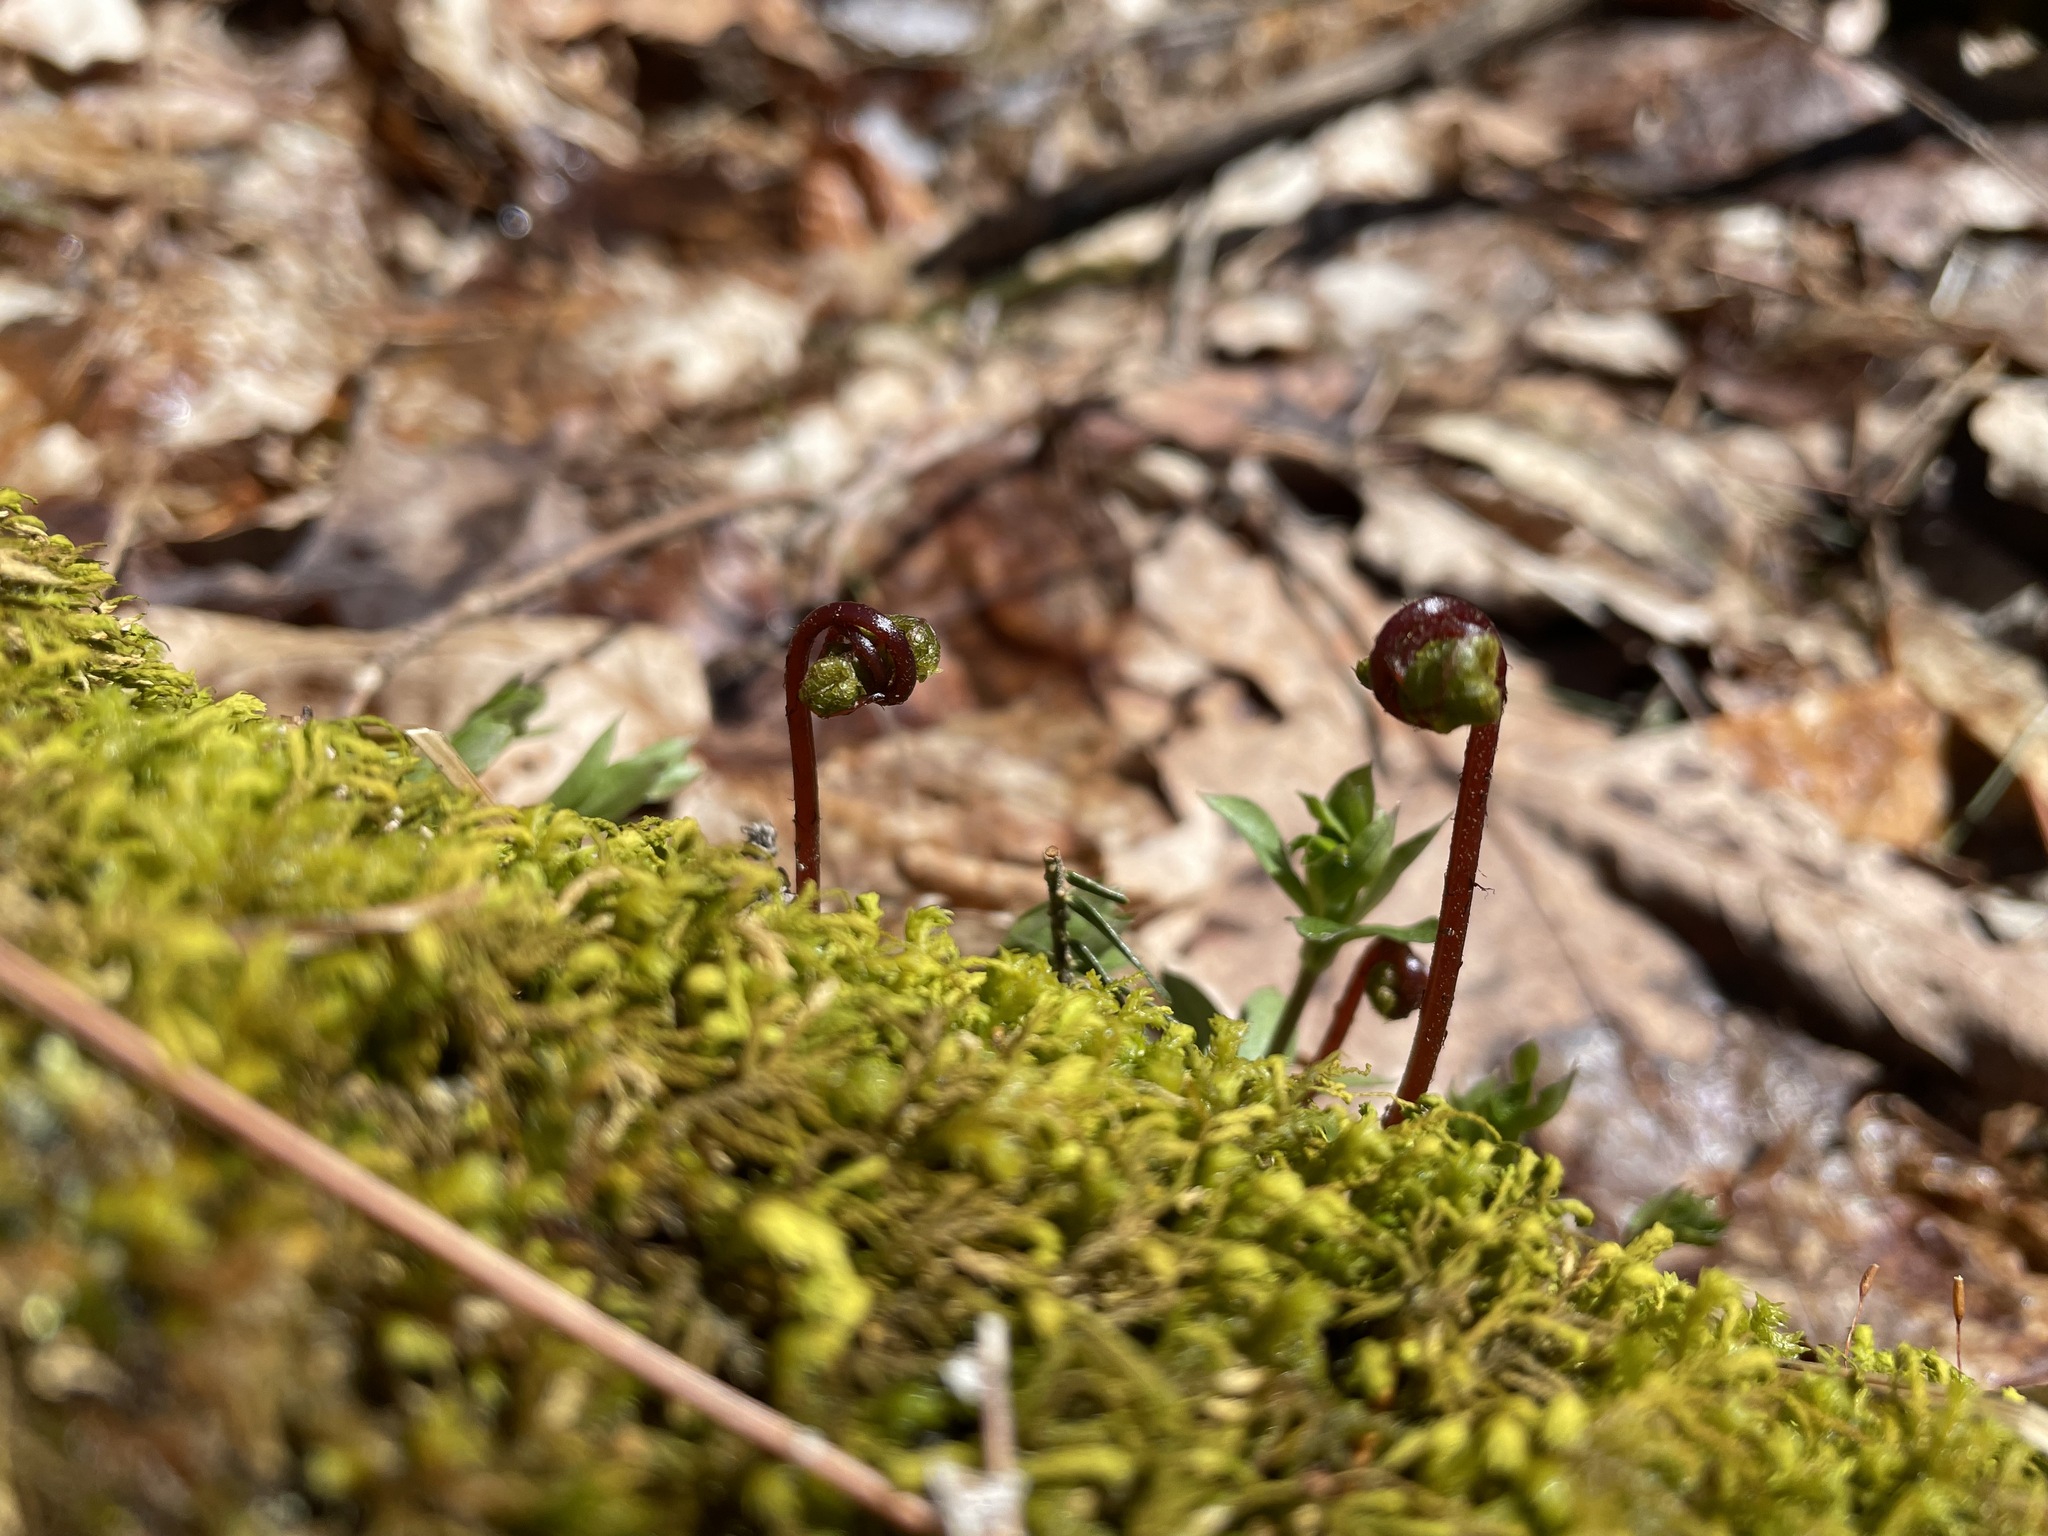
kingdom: Plantae
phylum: Tracheophyta
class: Polypodiopsida
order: Polypodiales
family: Onocleaceae
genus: Onoclea
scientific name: Onoclea sensibilis
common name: Sensitive fern
